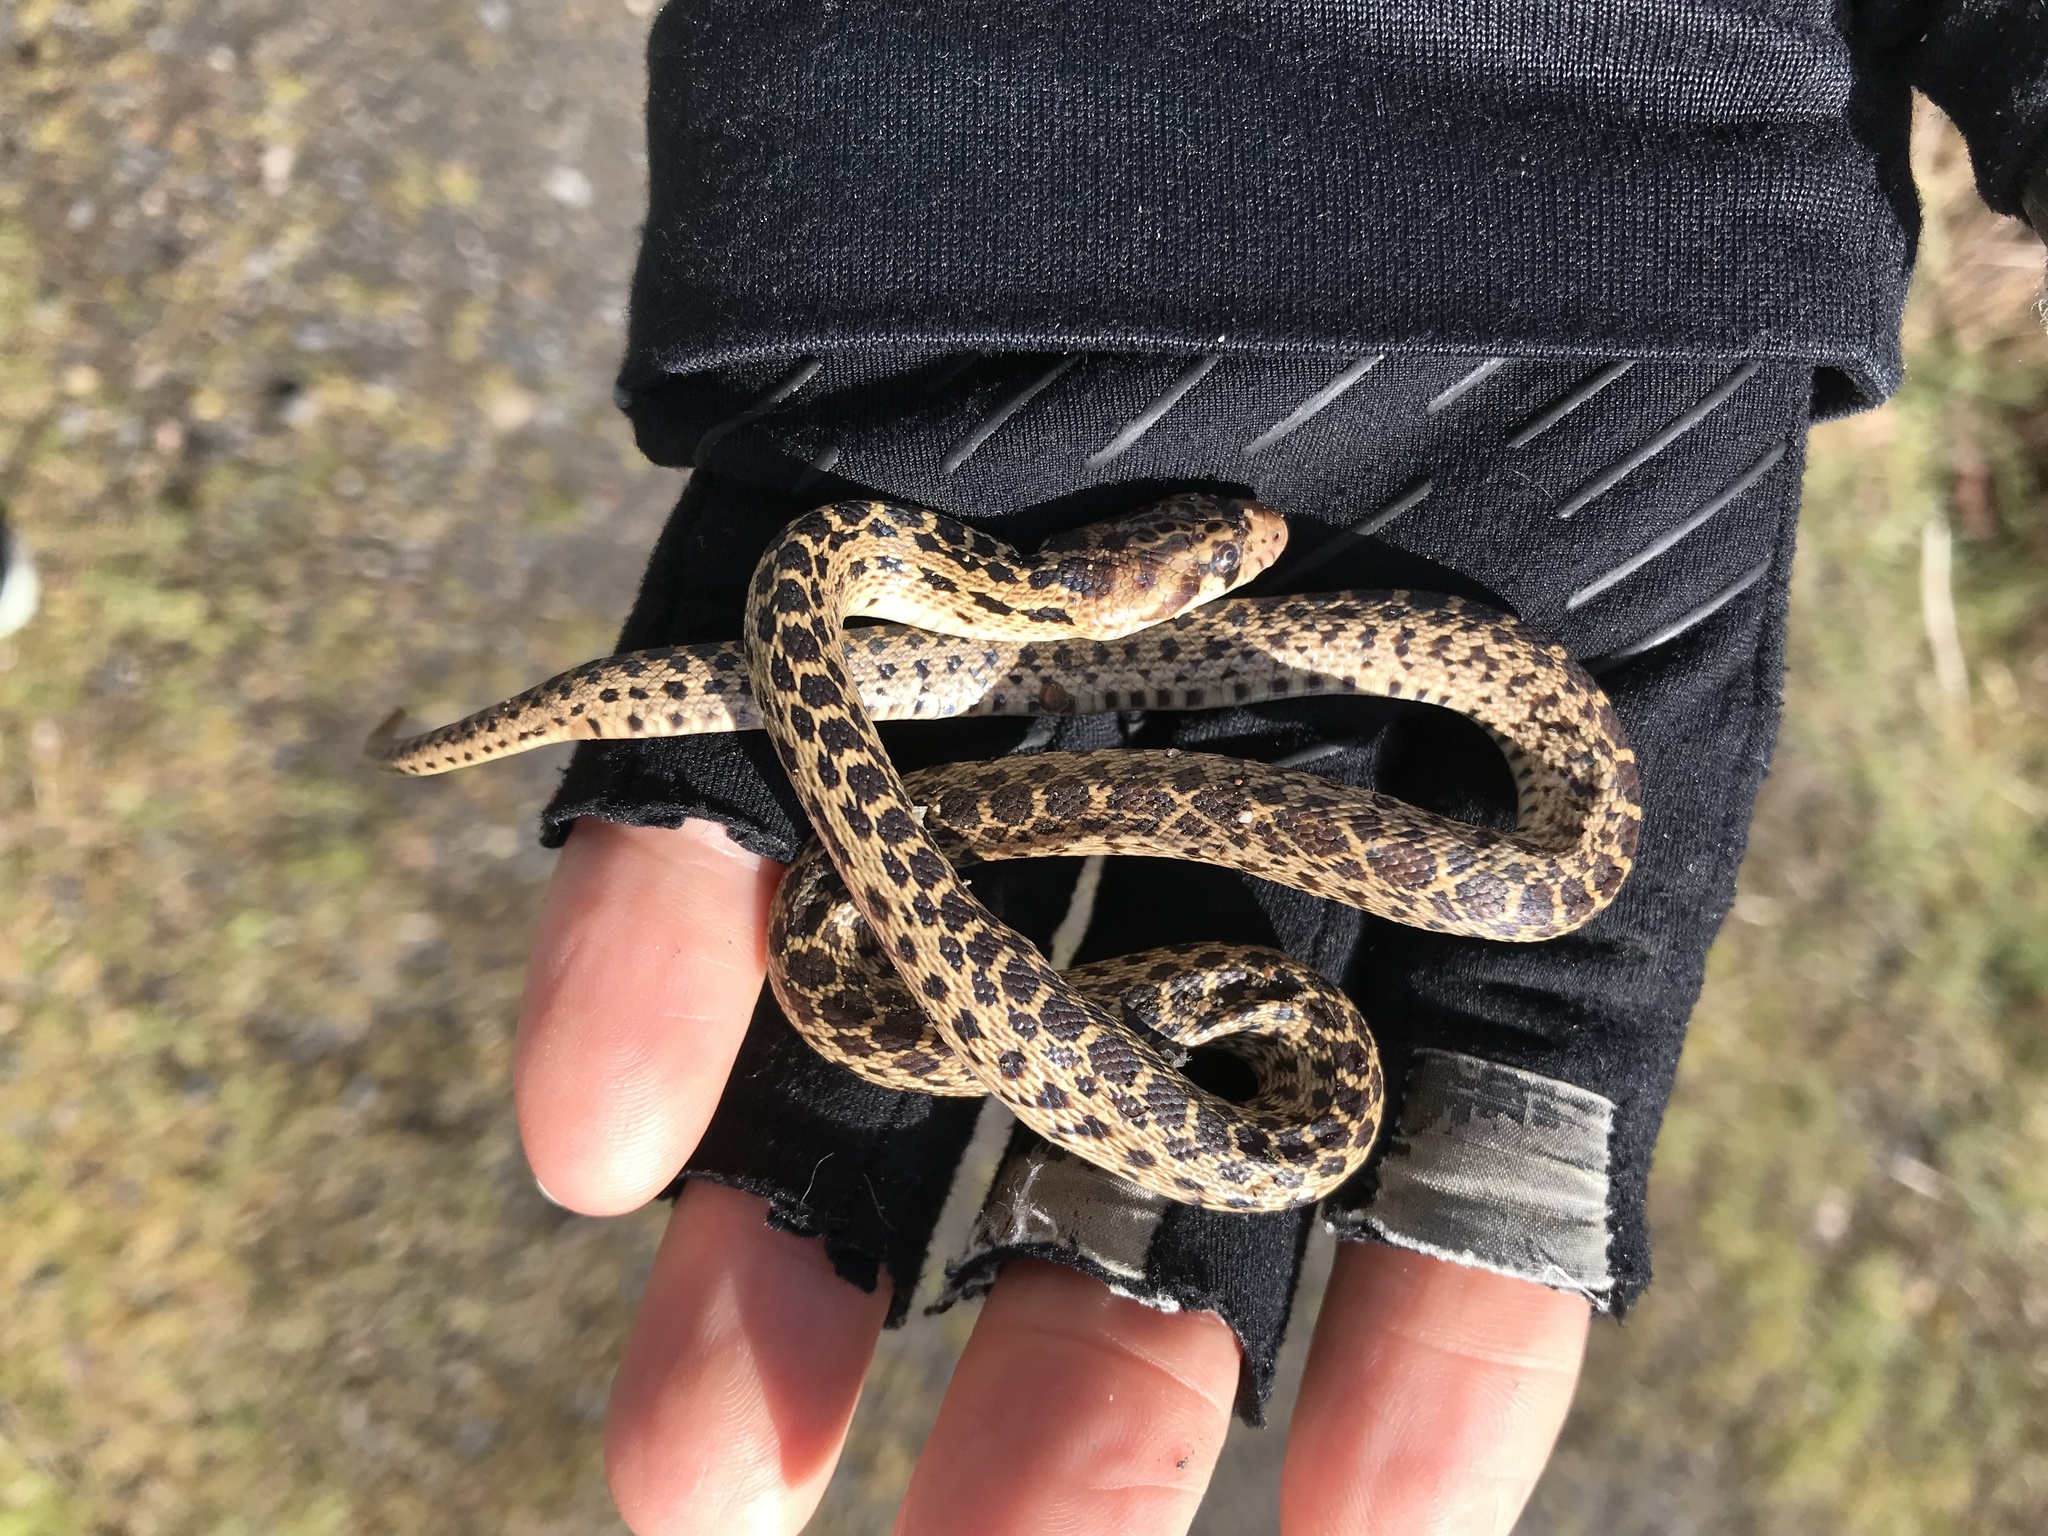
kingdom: Animalia
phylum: Chordata
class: Squamata
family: Colubridae
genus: Pituophis
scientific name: Pituophis catenifer
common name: Gopher snake
